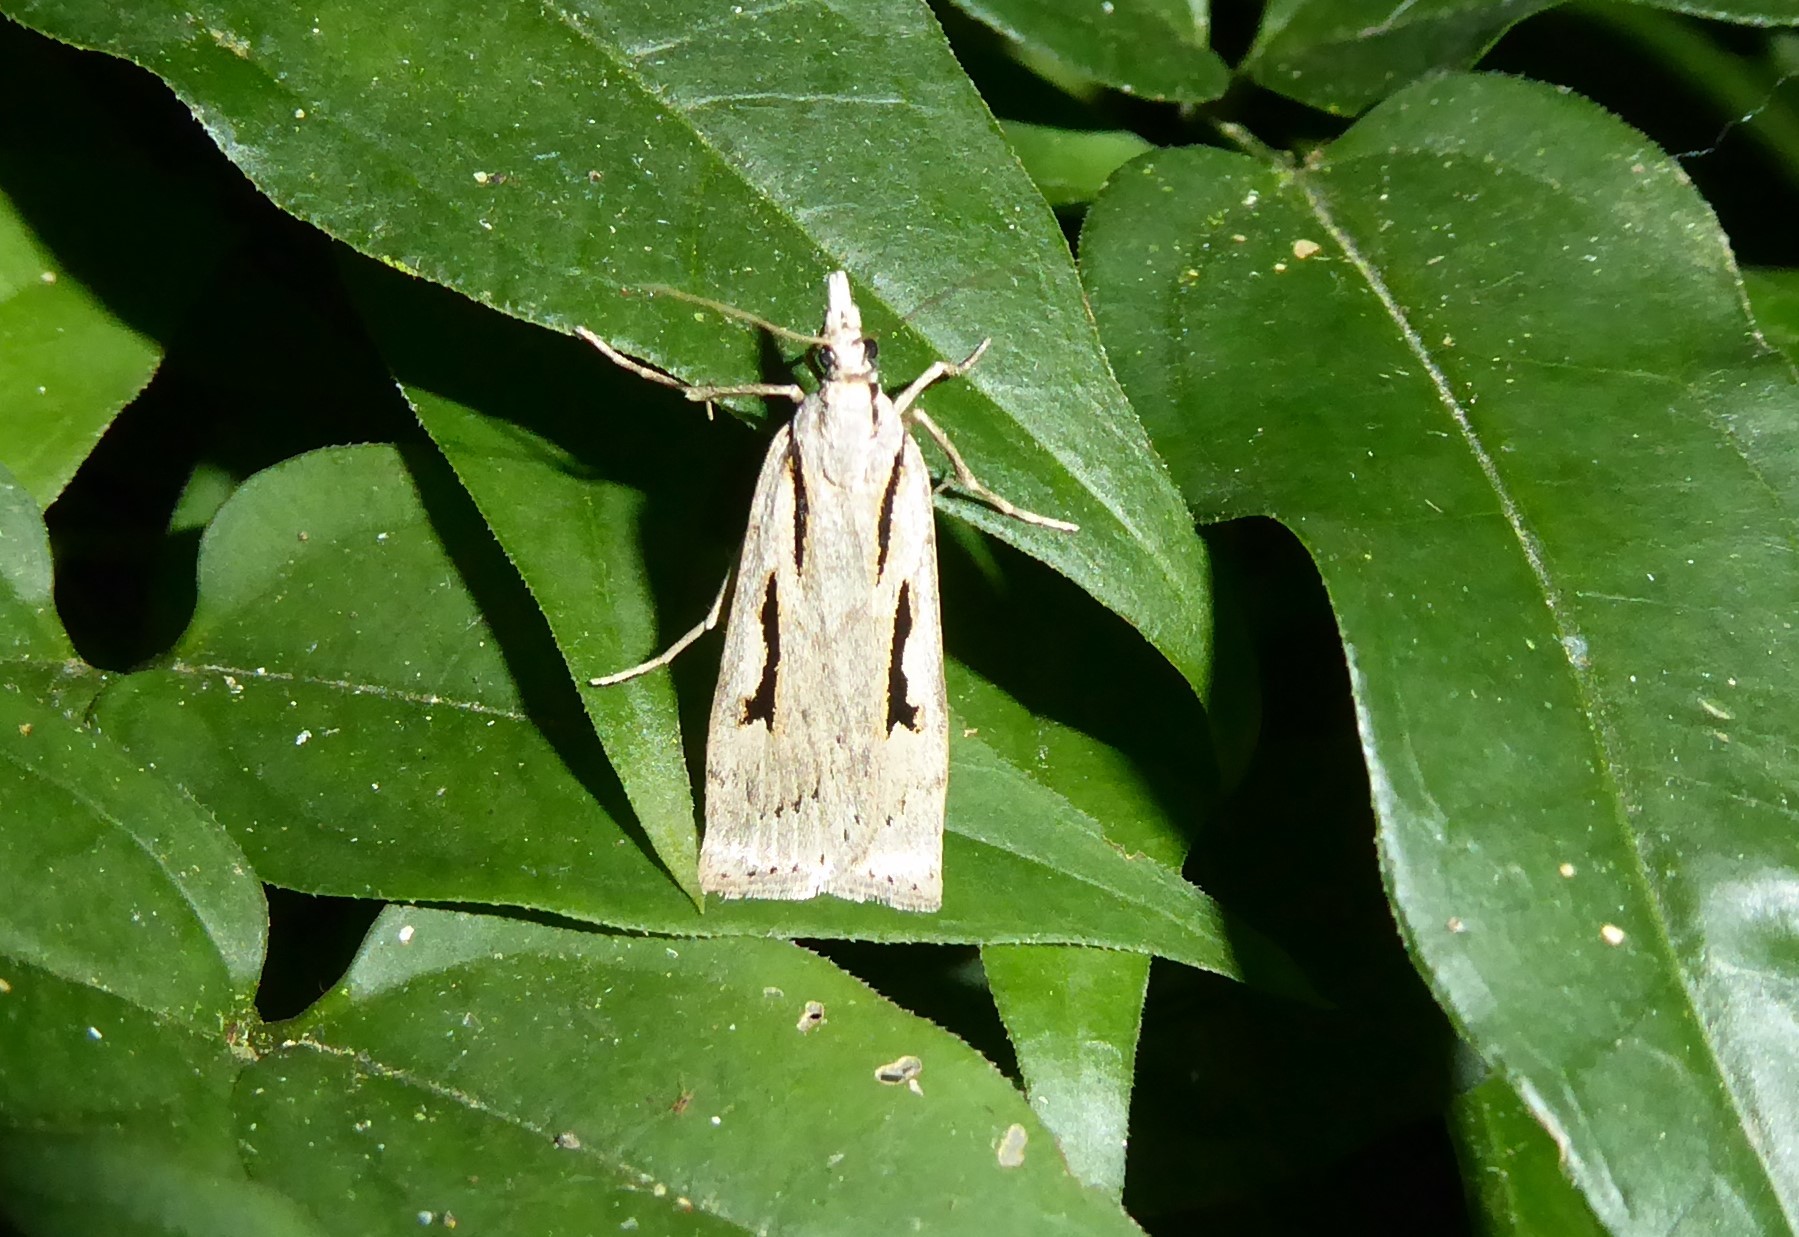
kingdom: Animalia
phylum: Arthropoda
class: Insecta
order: Lepidoptera
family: Crambidae
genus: Scoparia
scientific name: Scoparia rotuellus
